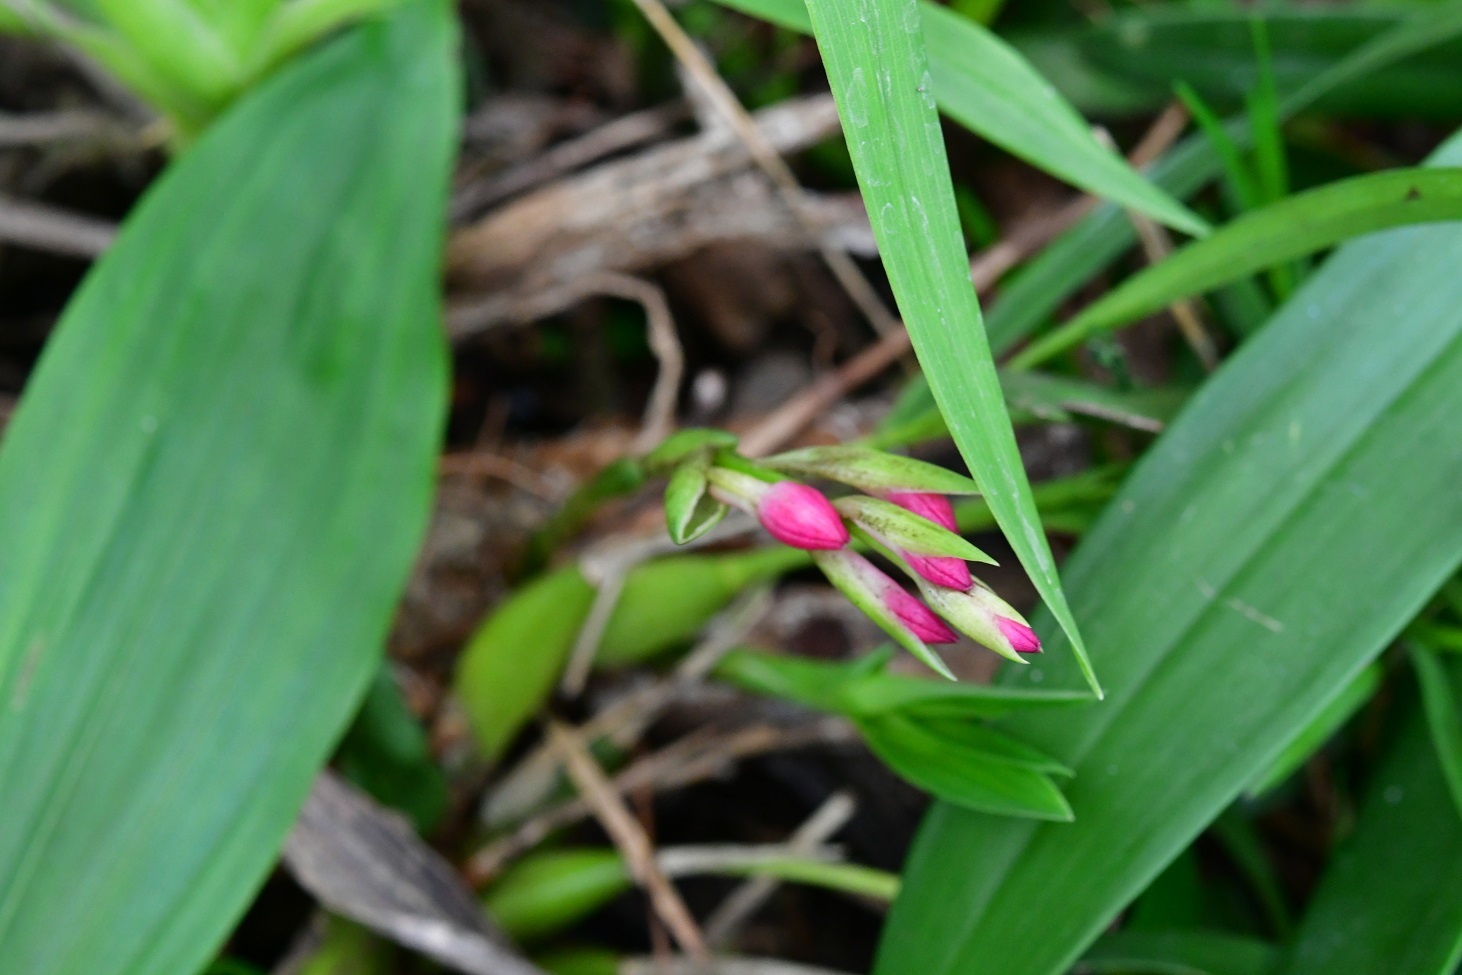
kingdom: Plantae
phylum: Tracheophyta
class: Liliopsida
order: Asparagales
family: Orchidaceae
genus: Coelia
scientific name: Coelia guatemalensis
